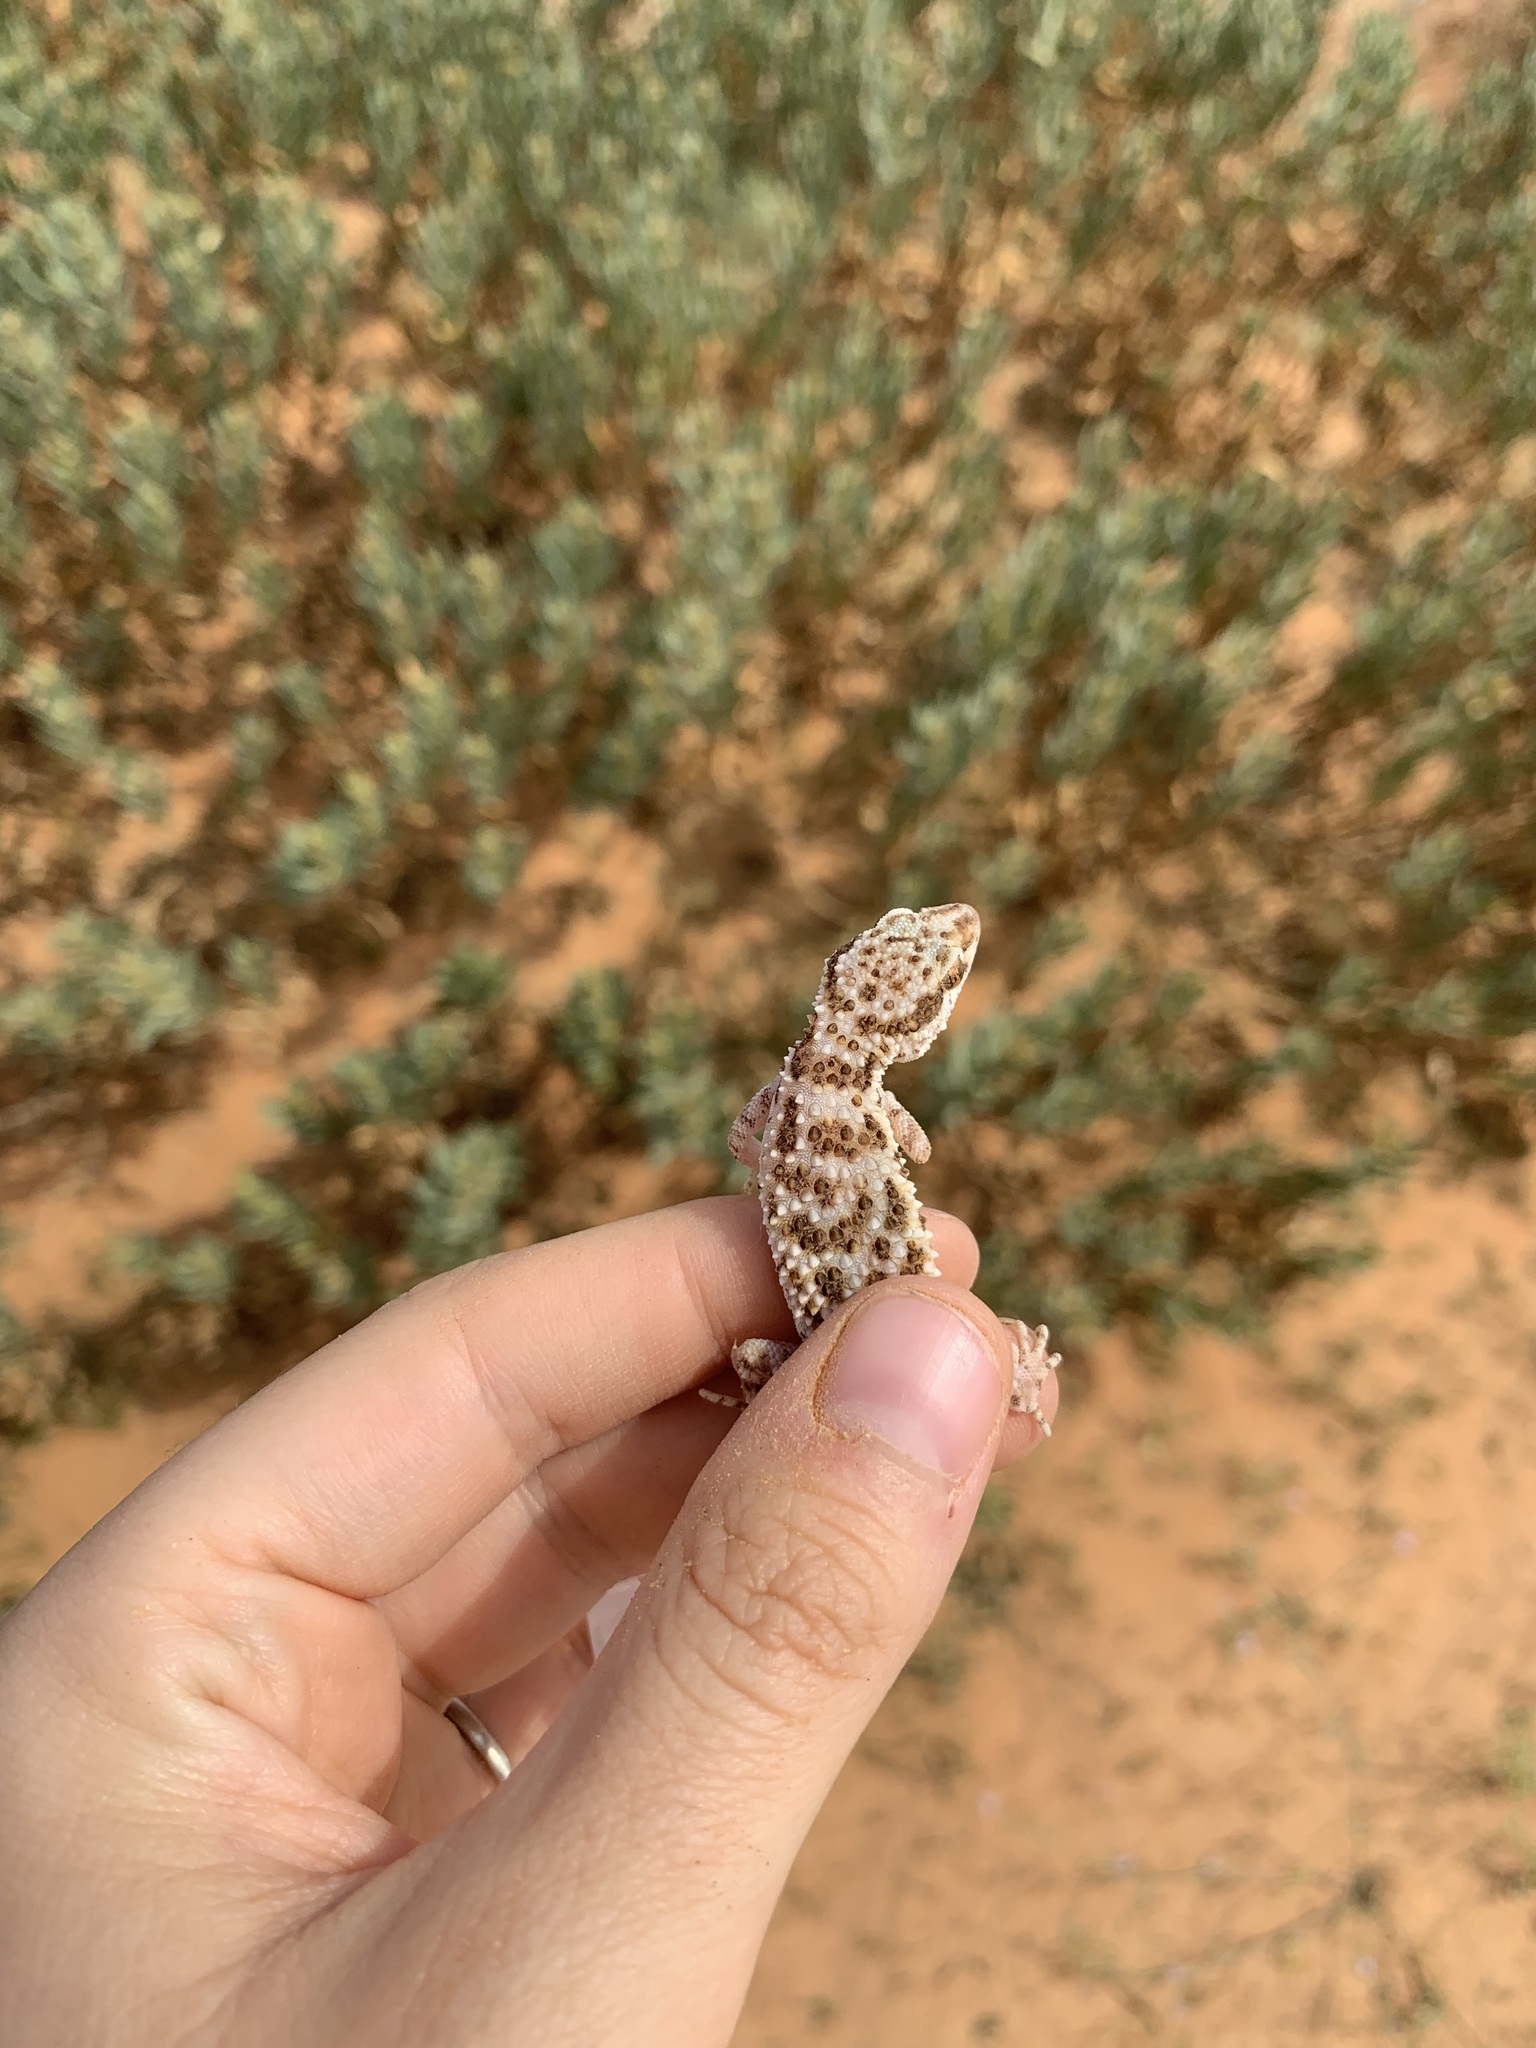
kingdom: Animalia
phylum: Chordata
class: Squamata
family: Gekkonidae
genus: Bunopus
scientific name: Bunopus tuberculatus
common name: Southern tuberculated gecko
